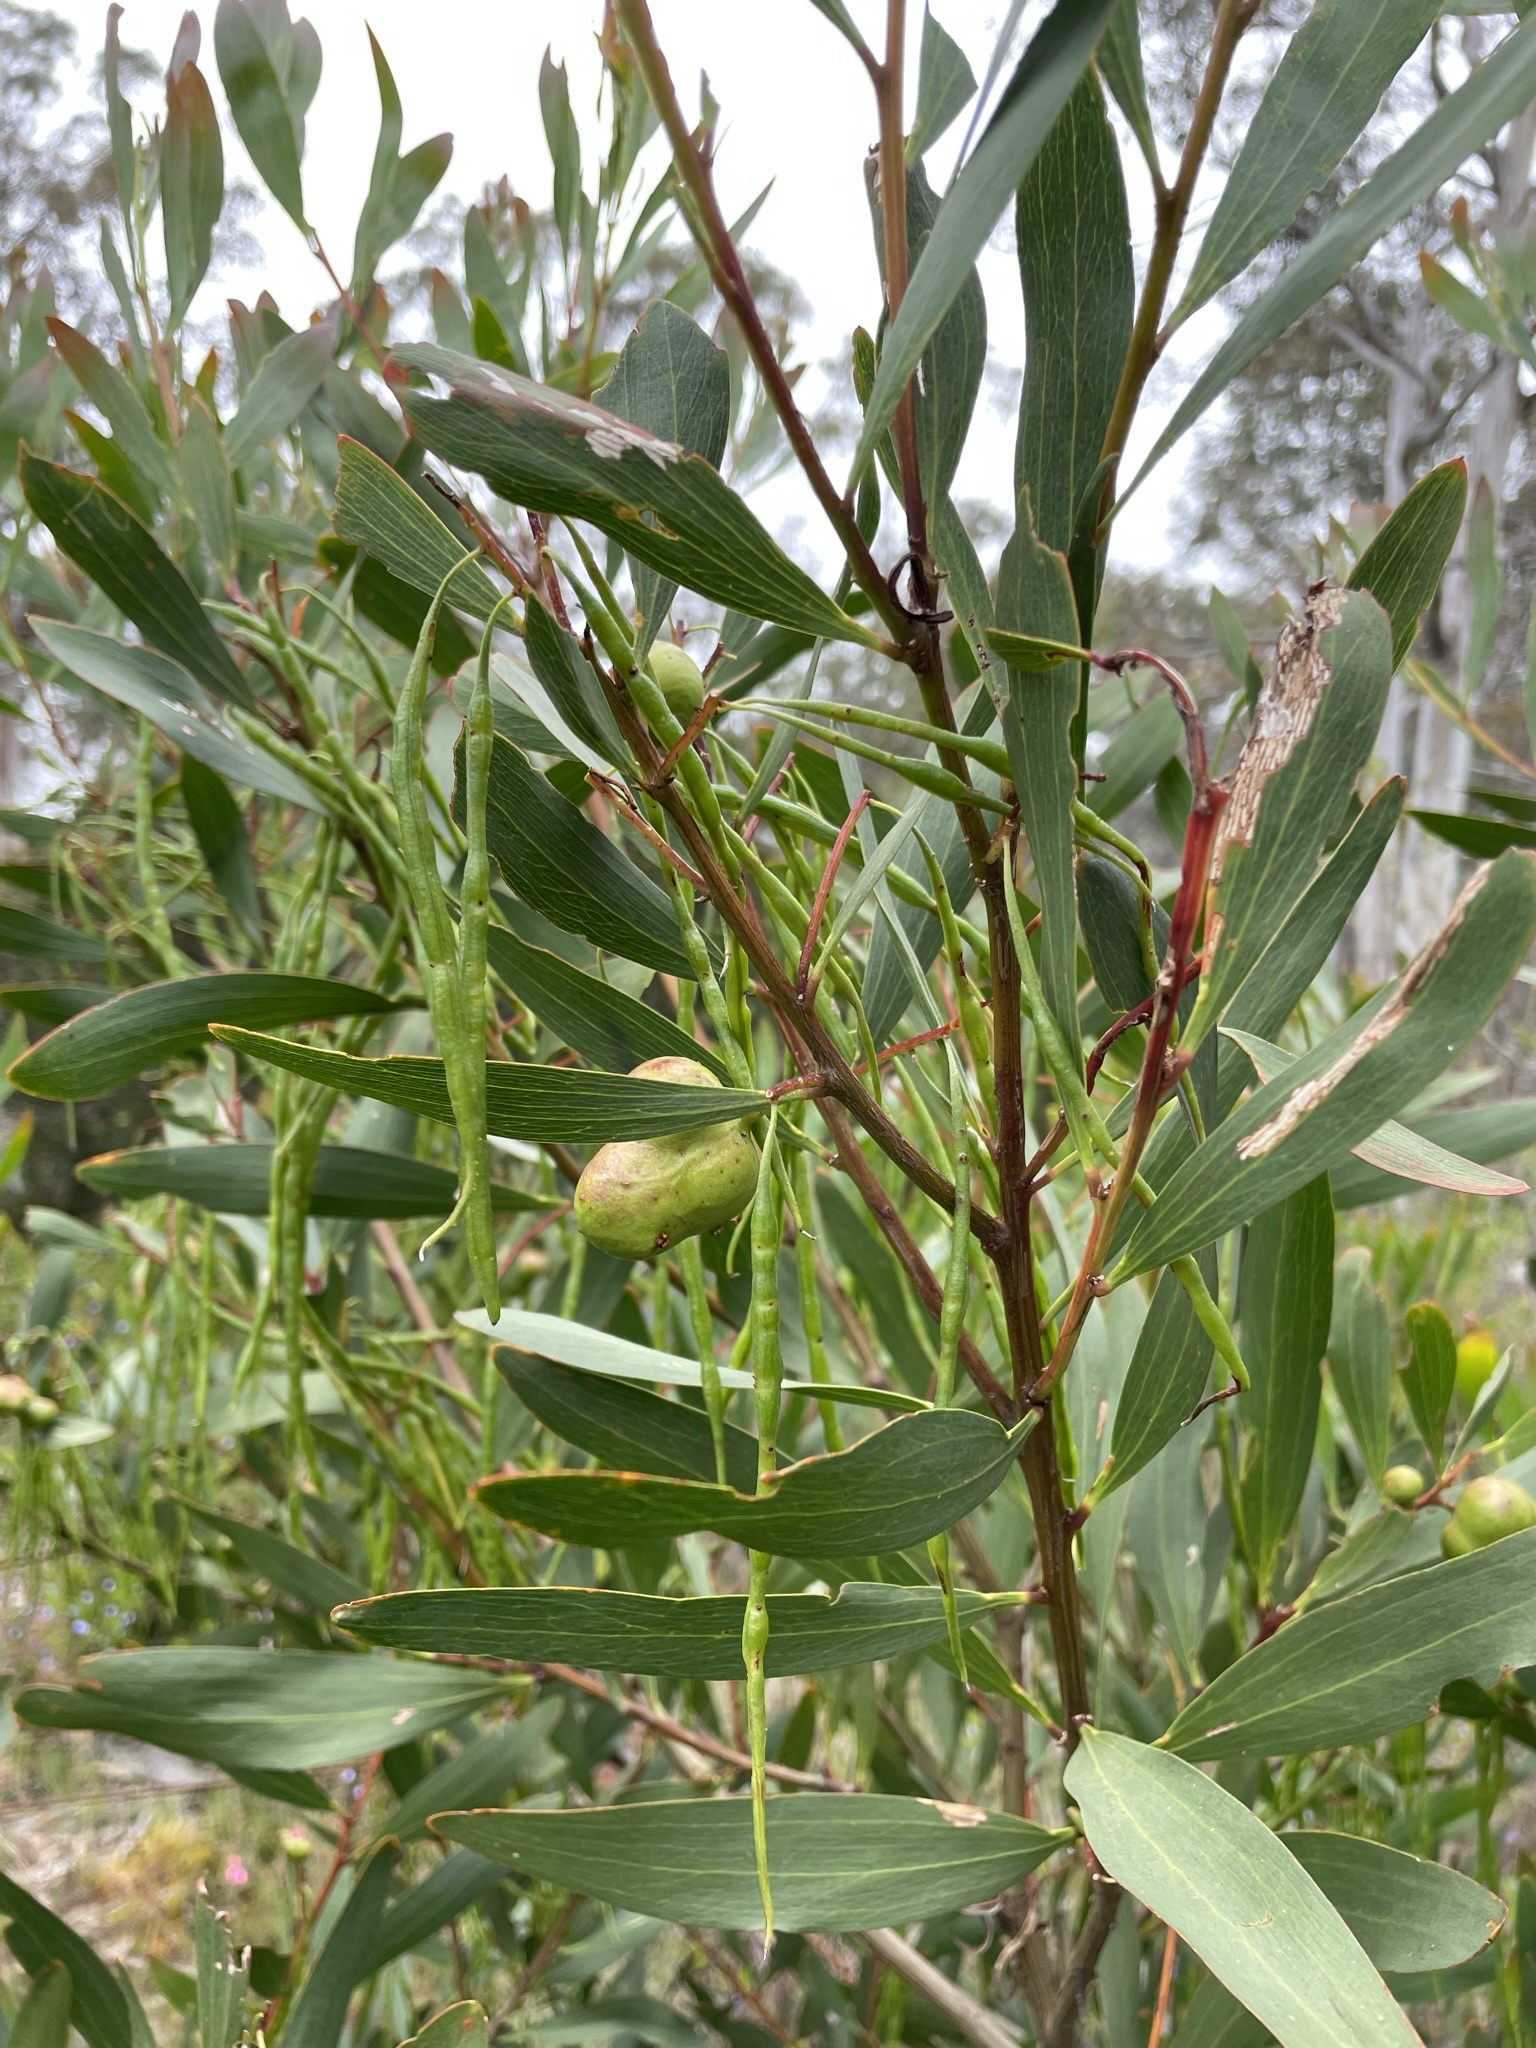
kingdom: Plantae
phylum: Tracheophyta
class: Magnoliopsida
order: Fabales
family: Fabaceae
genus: Acacia
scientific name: Acacia longifolia
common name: Sydney golden wattle
